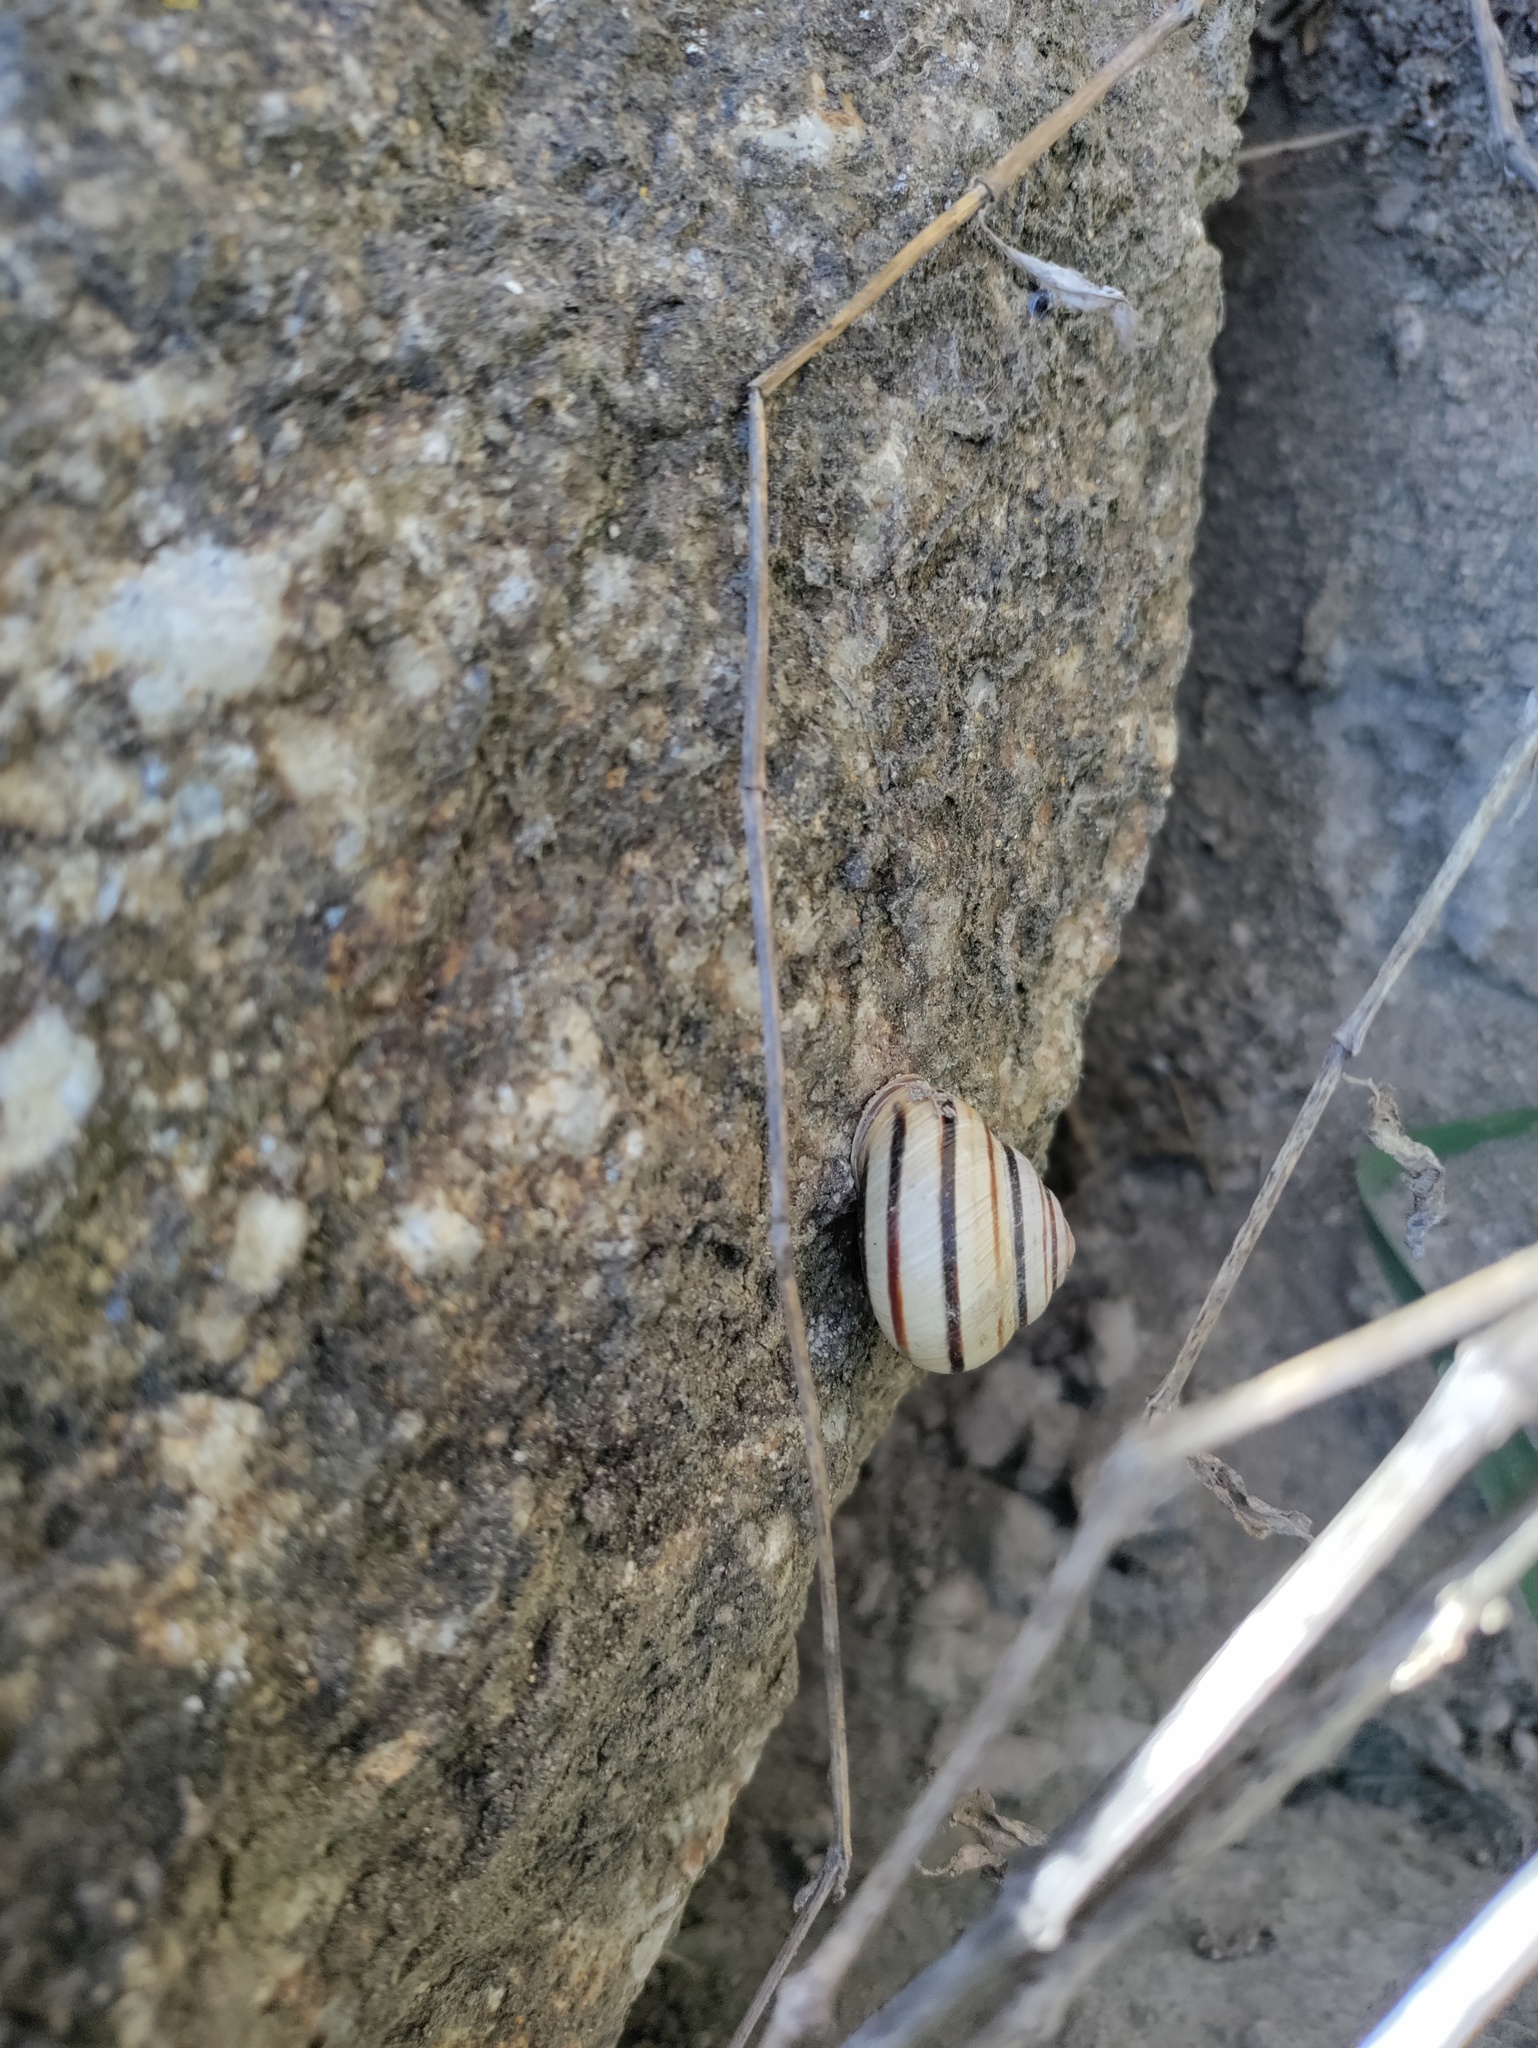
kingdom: Animalia
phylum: Mollusca
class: Gastropoda
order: Stylommatophora
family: Helicidae
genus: Caucasotachea
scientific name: Caucasotachea vindobonensis
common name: European helicid land snail
